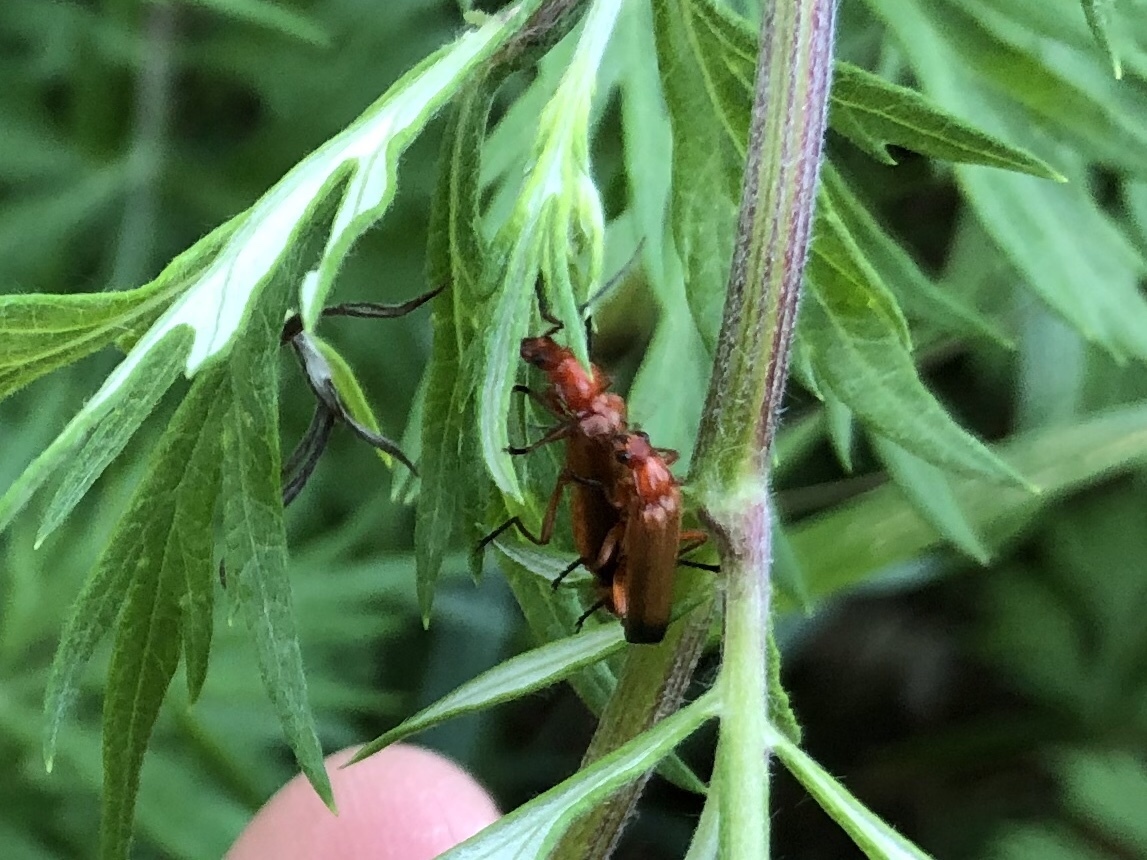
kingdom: Animalia
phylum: Arthropoda
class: Insecta
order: Coleoptera
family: Cantharidae
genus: Rhagonycha
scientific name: Rhagonycha fulva
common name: Common red soldier beetle
